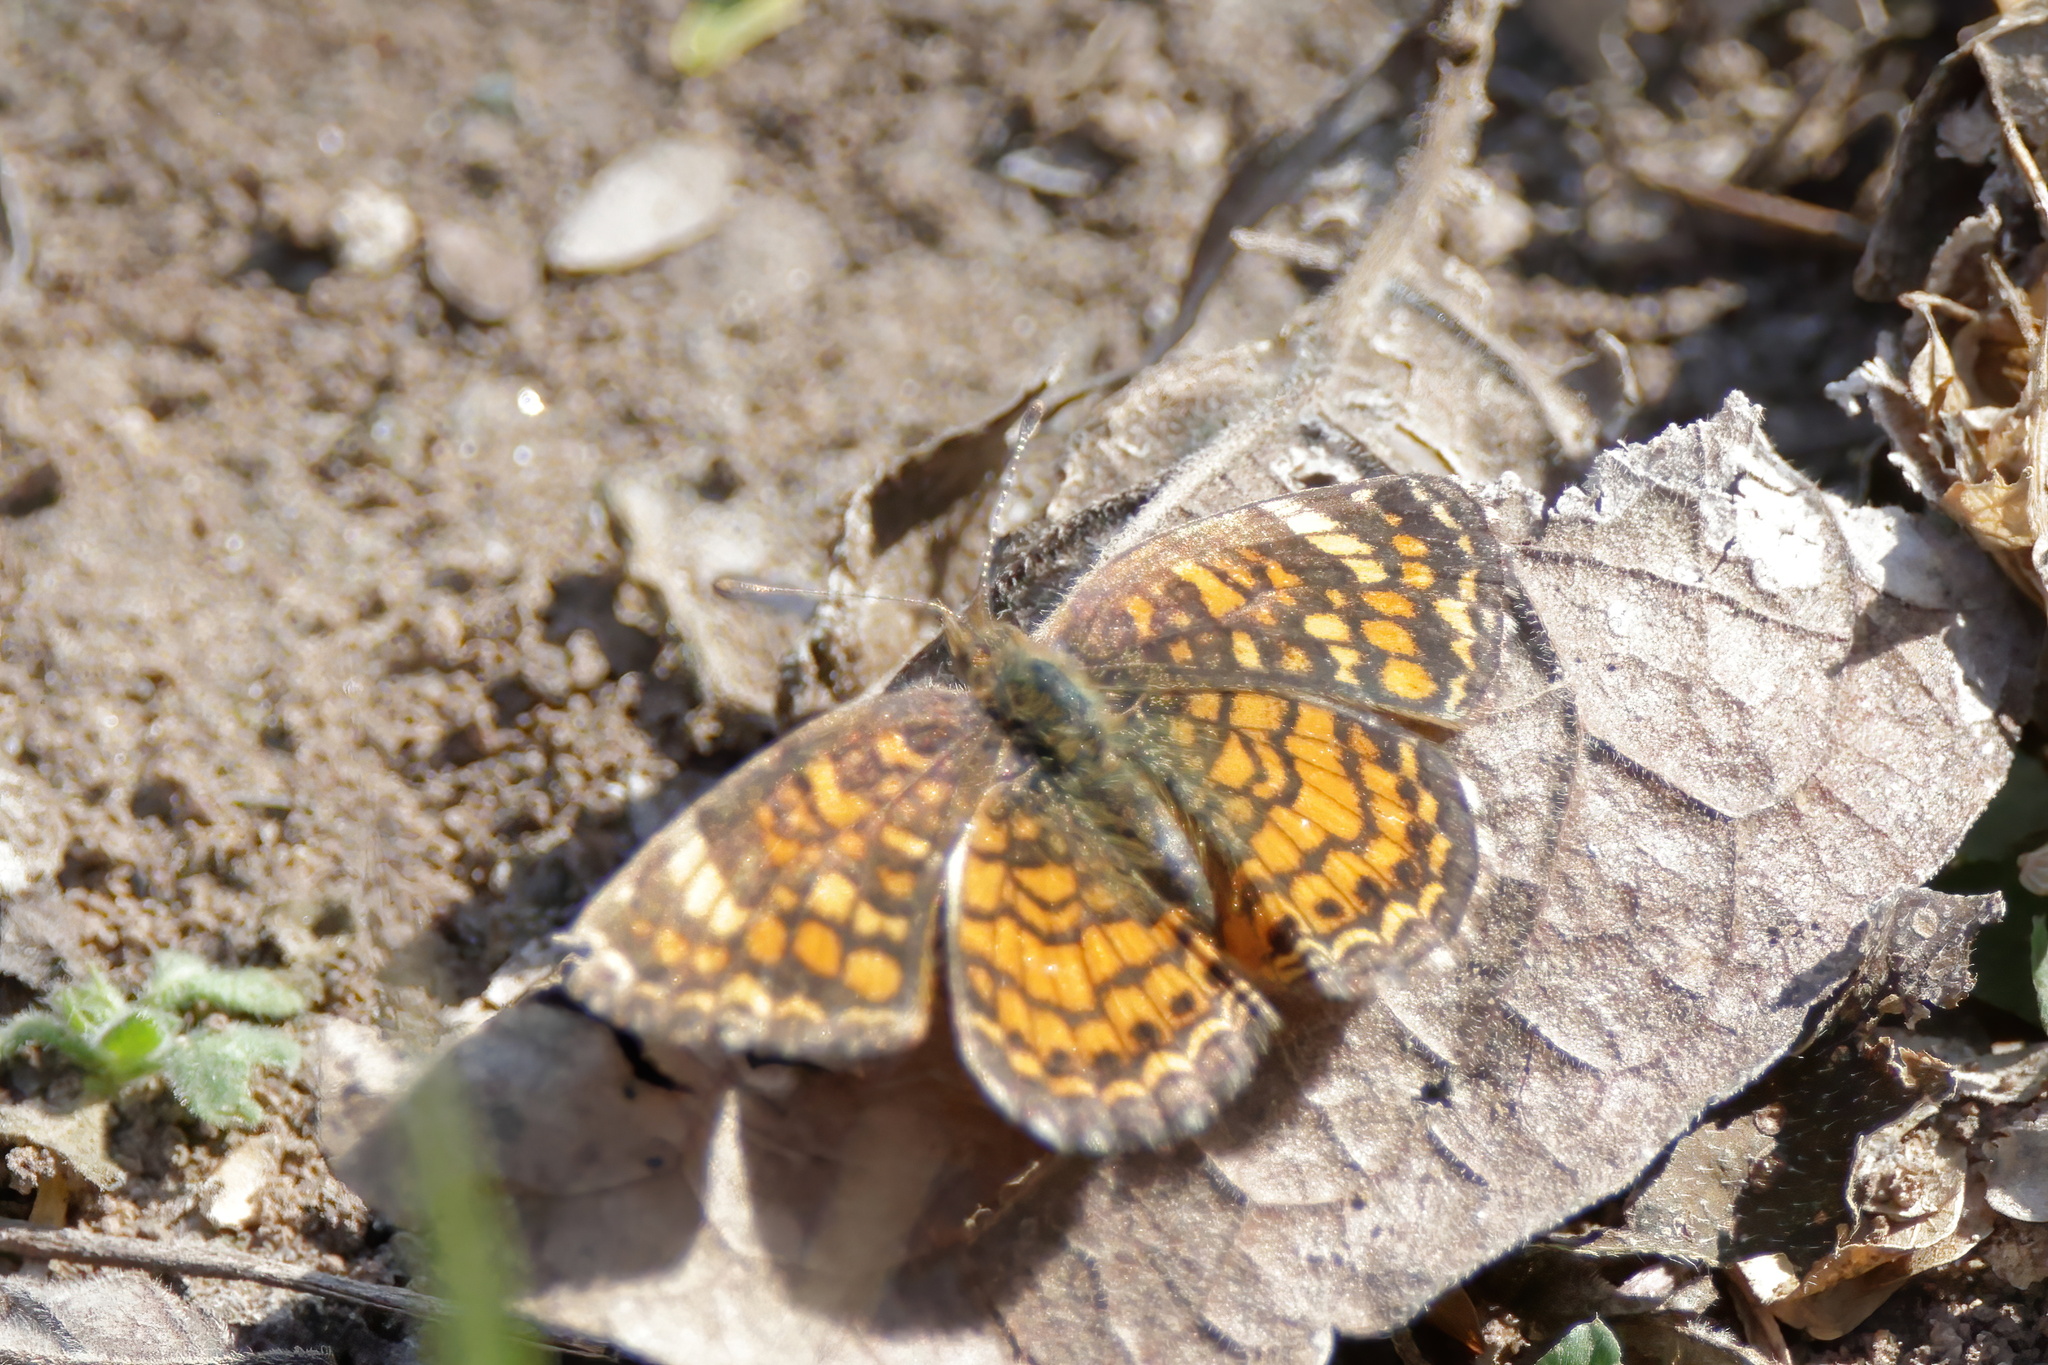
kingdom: Animalia
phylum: Arthropoda
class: Insecta
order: Lepidoptera
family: Nymphalidae
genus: Phyciodes
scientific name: Phyciodes vesta
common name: Vesta crescent
